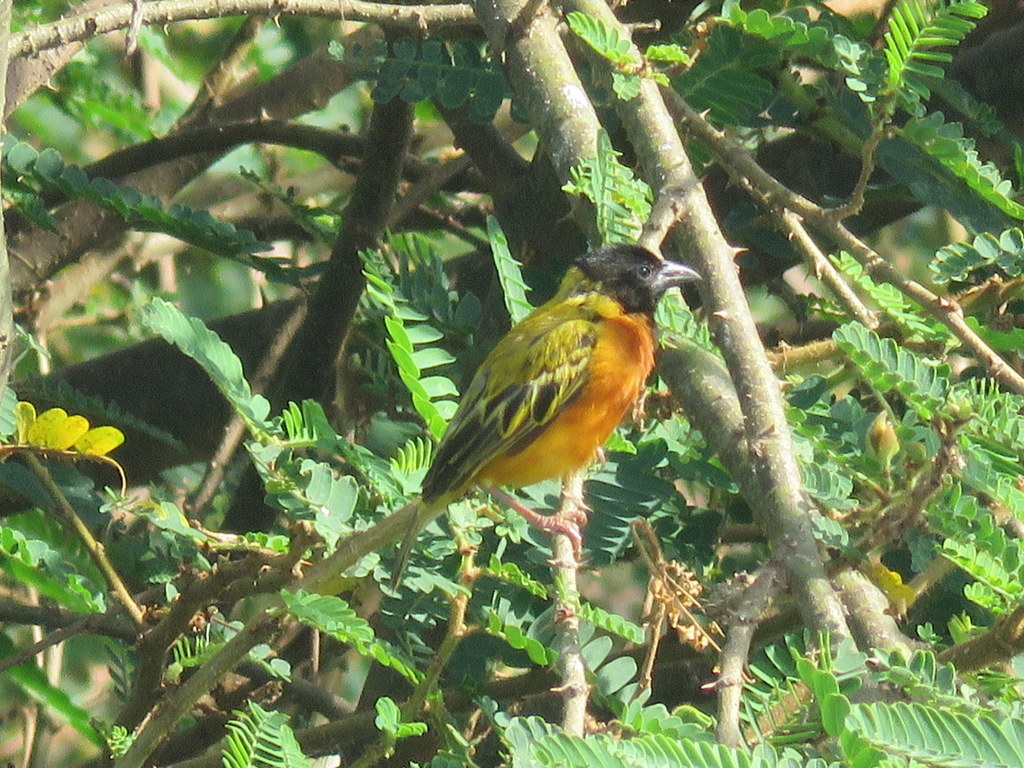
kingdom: Animalia
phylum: Chordata
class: Aves
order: Passeriformes
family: Ploceidae
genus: Ploceus
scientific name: Ploceus melanocephalus
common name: Black-headed weaver
